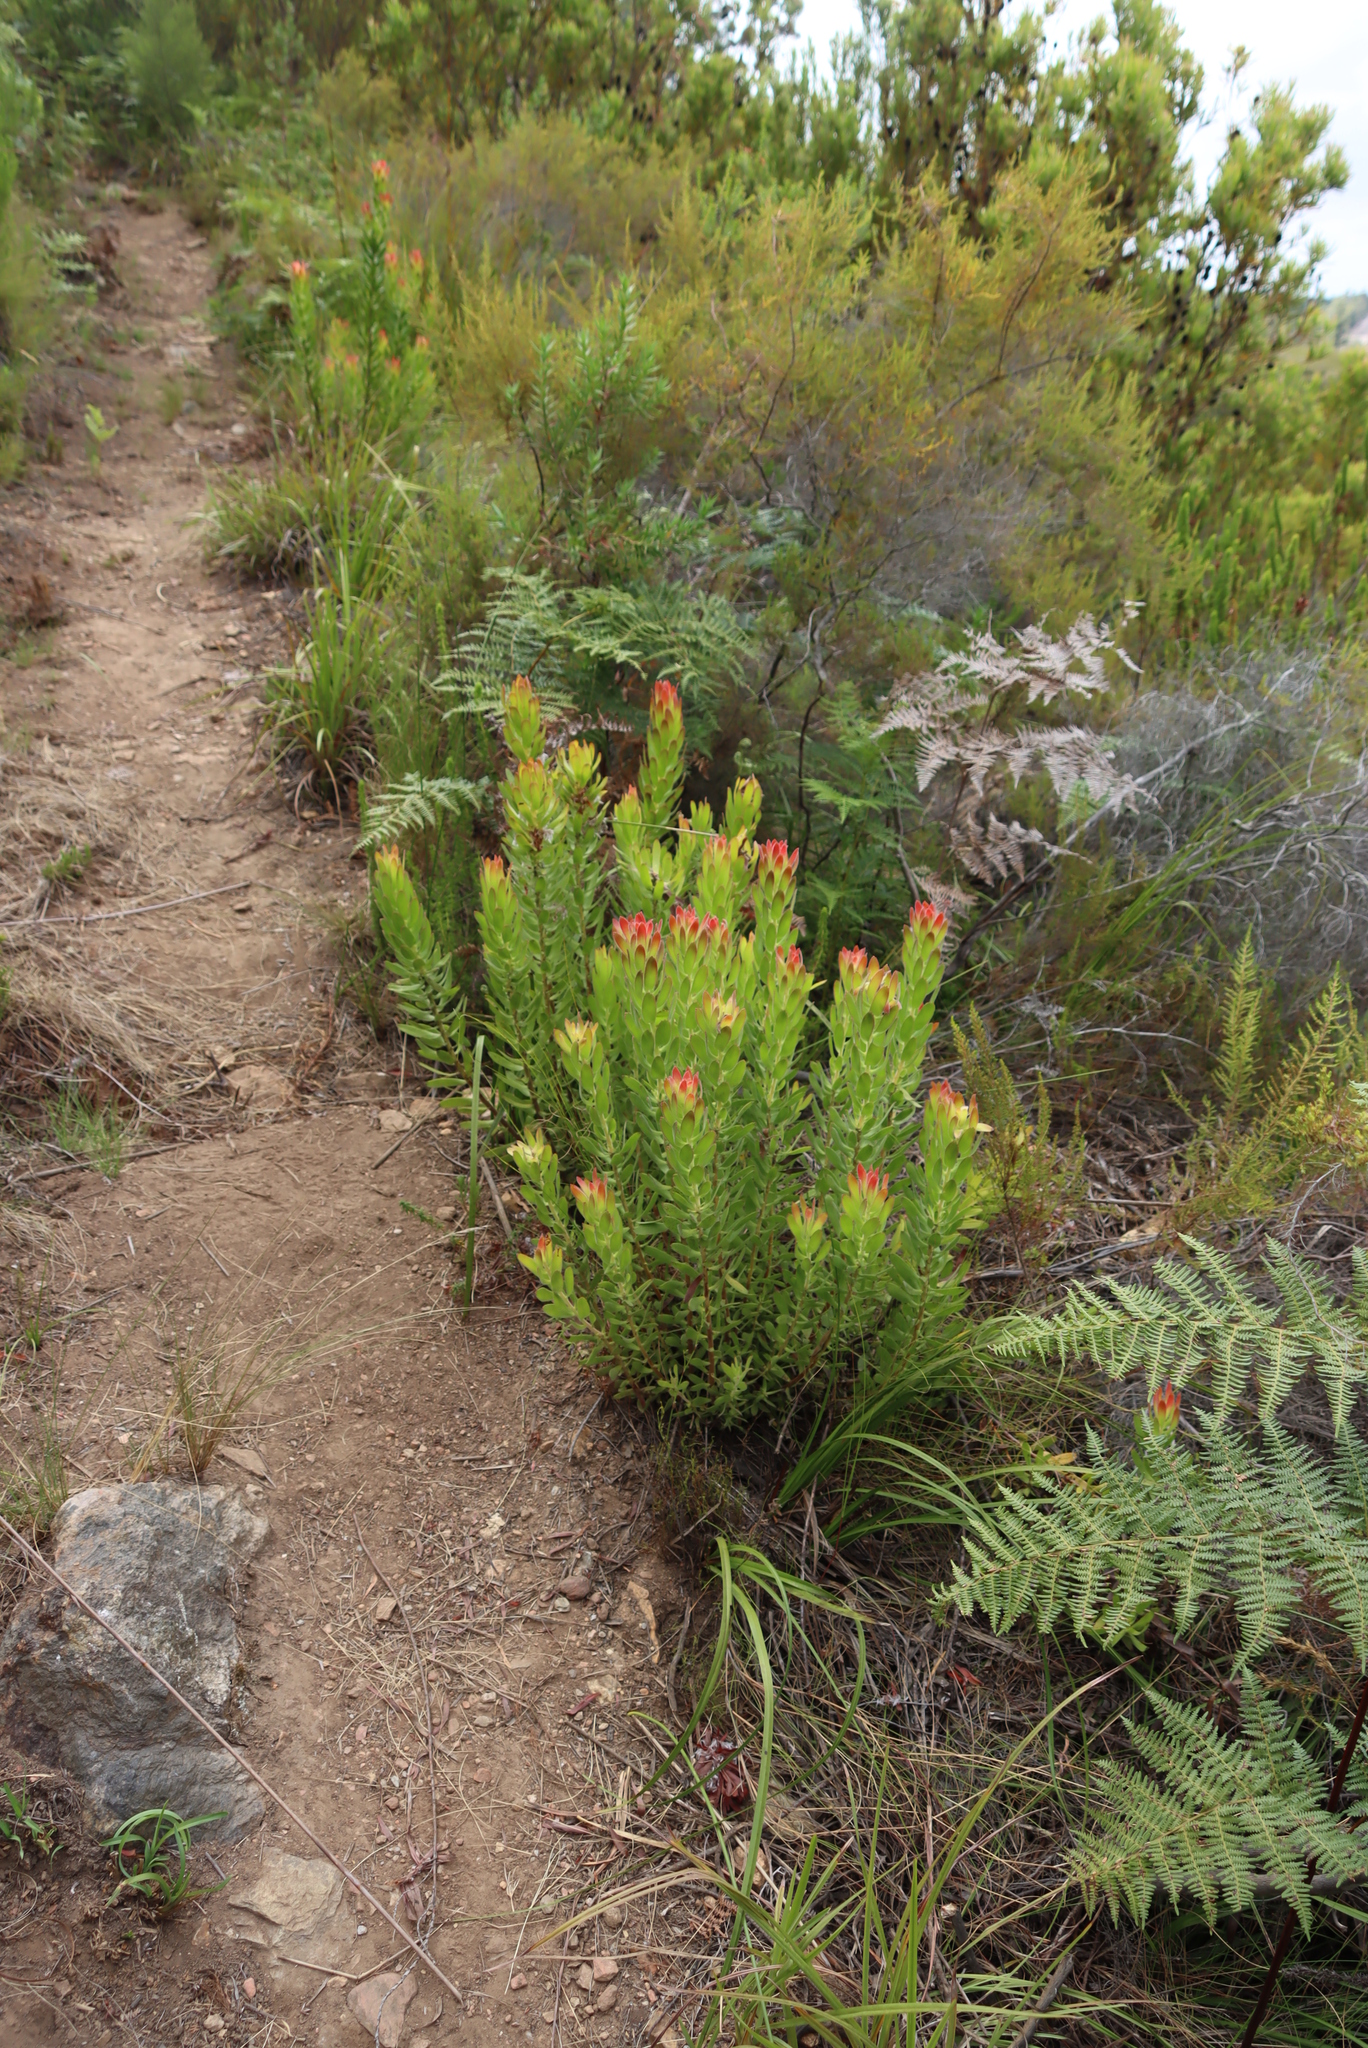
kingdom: Plantae
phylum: Tracheophyta
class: Magnoliopsida
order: Proteales
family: Proteaceae
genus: Mimetes
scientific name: Mimetes cucullatus
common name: Common pagoda
